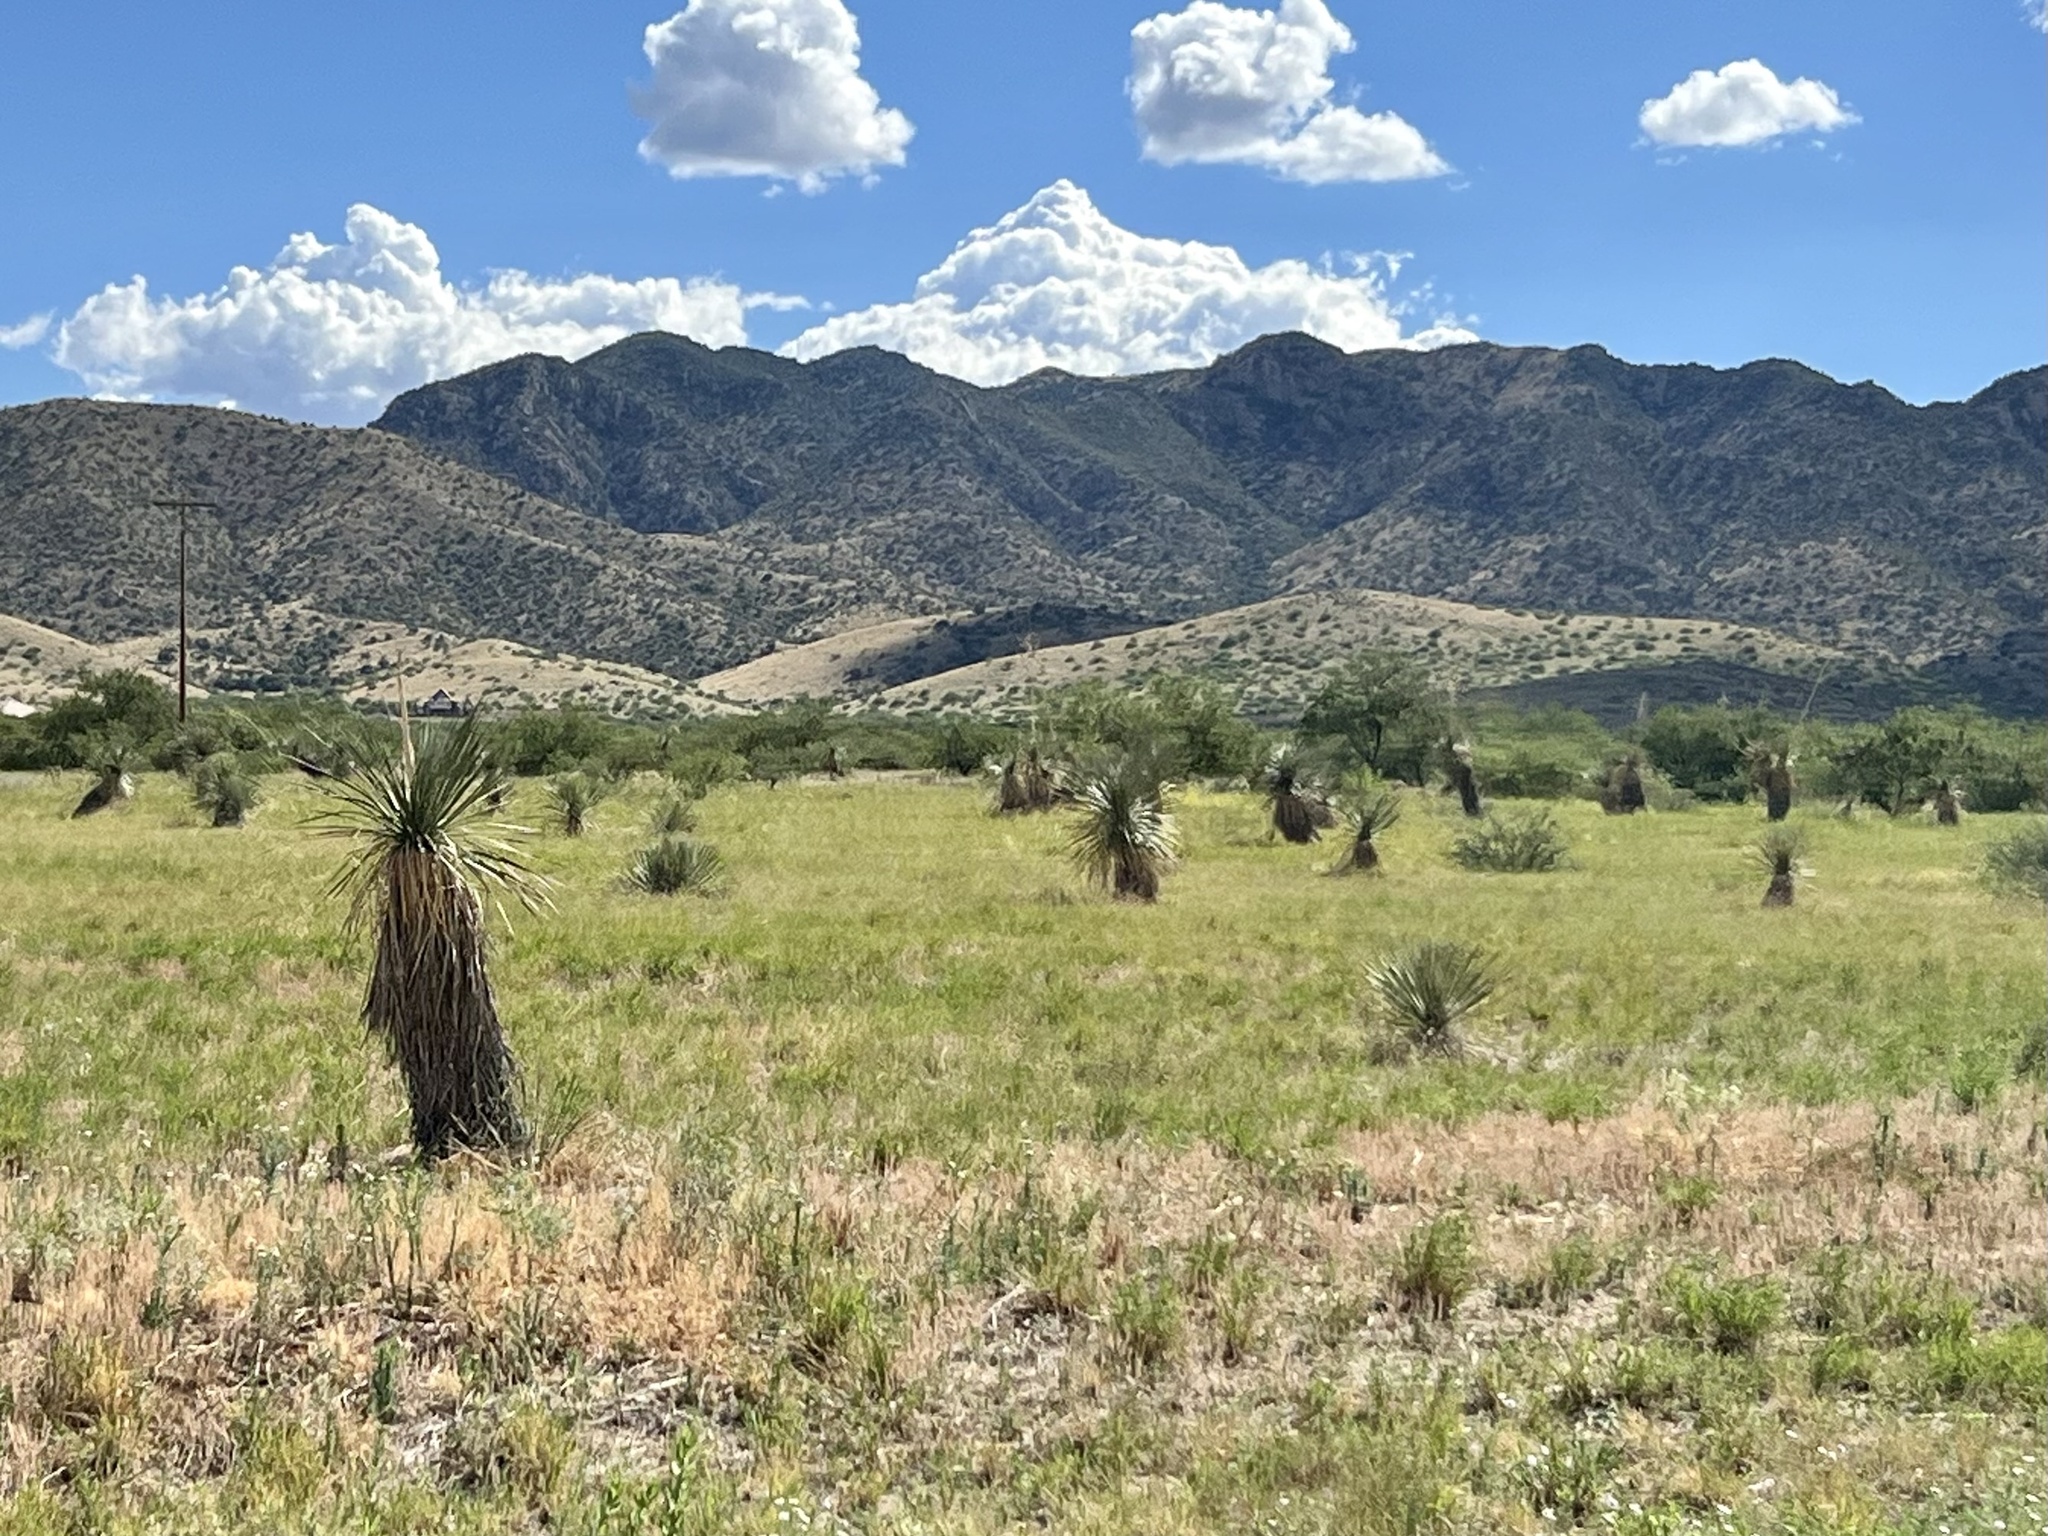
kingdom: Plantae
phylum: Tracheophyta
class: Liliopsida
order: Asparagales
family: Asparagaceae
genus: Yucca
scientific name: Yucca elata
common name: Palmella
